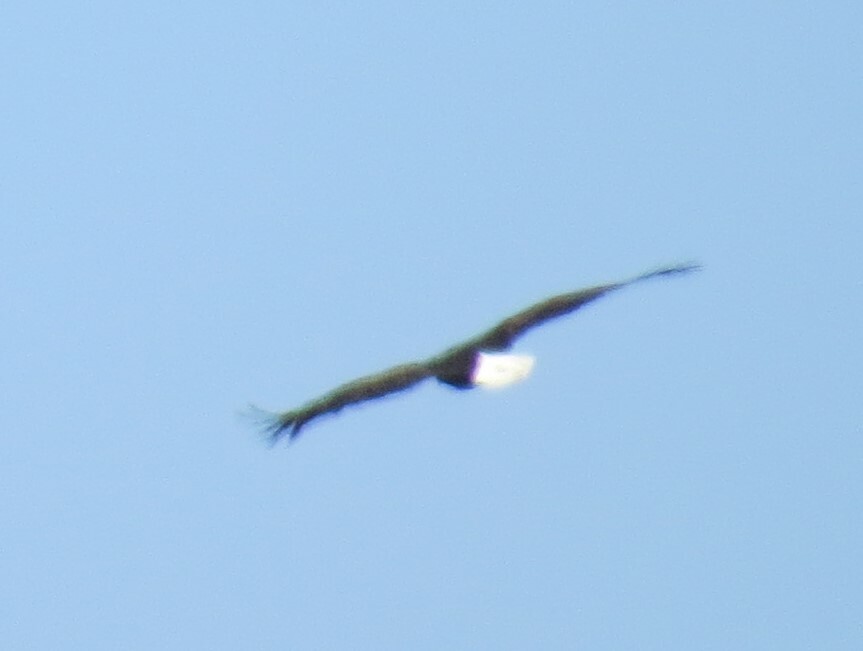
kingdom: Animalia
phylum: Chordata
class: Aves
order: Accipitriformes
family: Accipitridae
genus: Haliaeetus
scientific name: Haliaeetus leucocephalus
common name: Bald eagle
